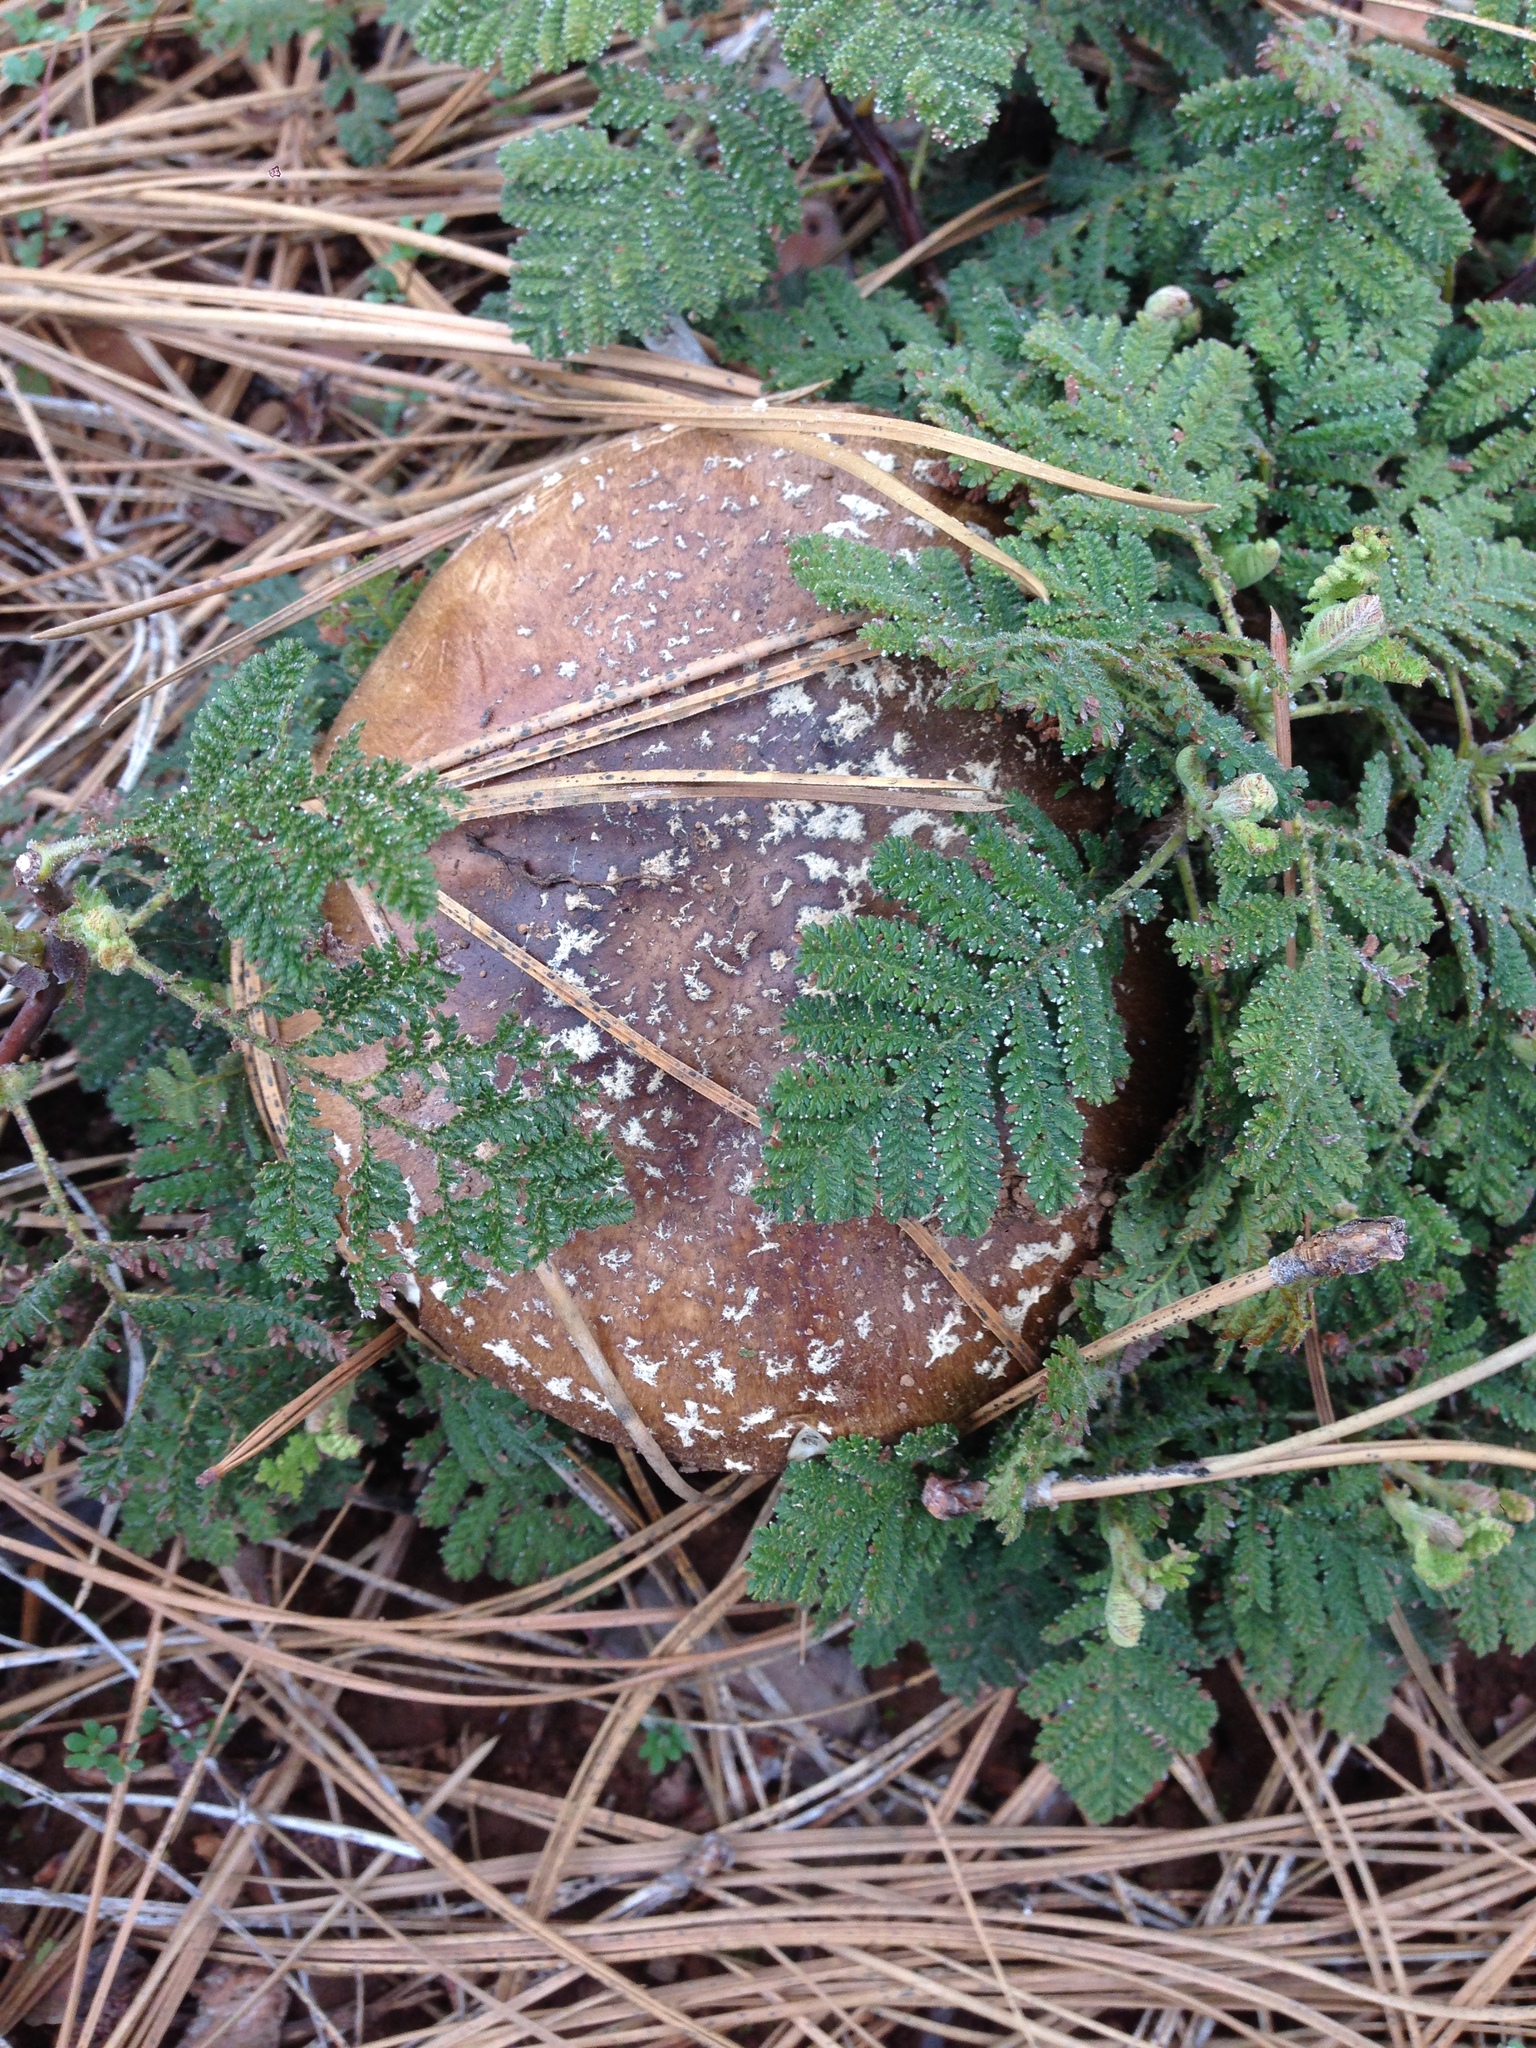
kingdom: Plantae
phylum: Tracheophyta
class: Magnoliopsida
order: Rosales
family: Rosaceae
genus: Chamaebatia
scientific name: Chamaebatia foliolosa
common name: Mountain misery
